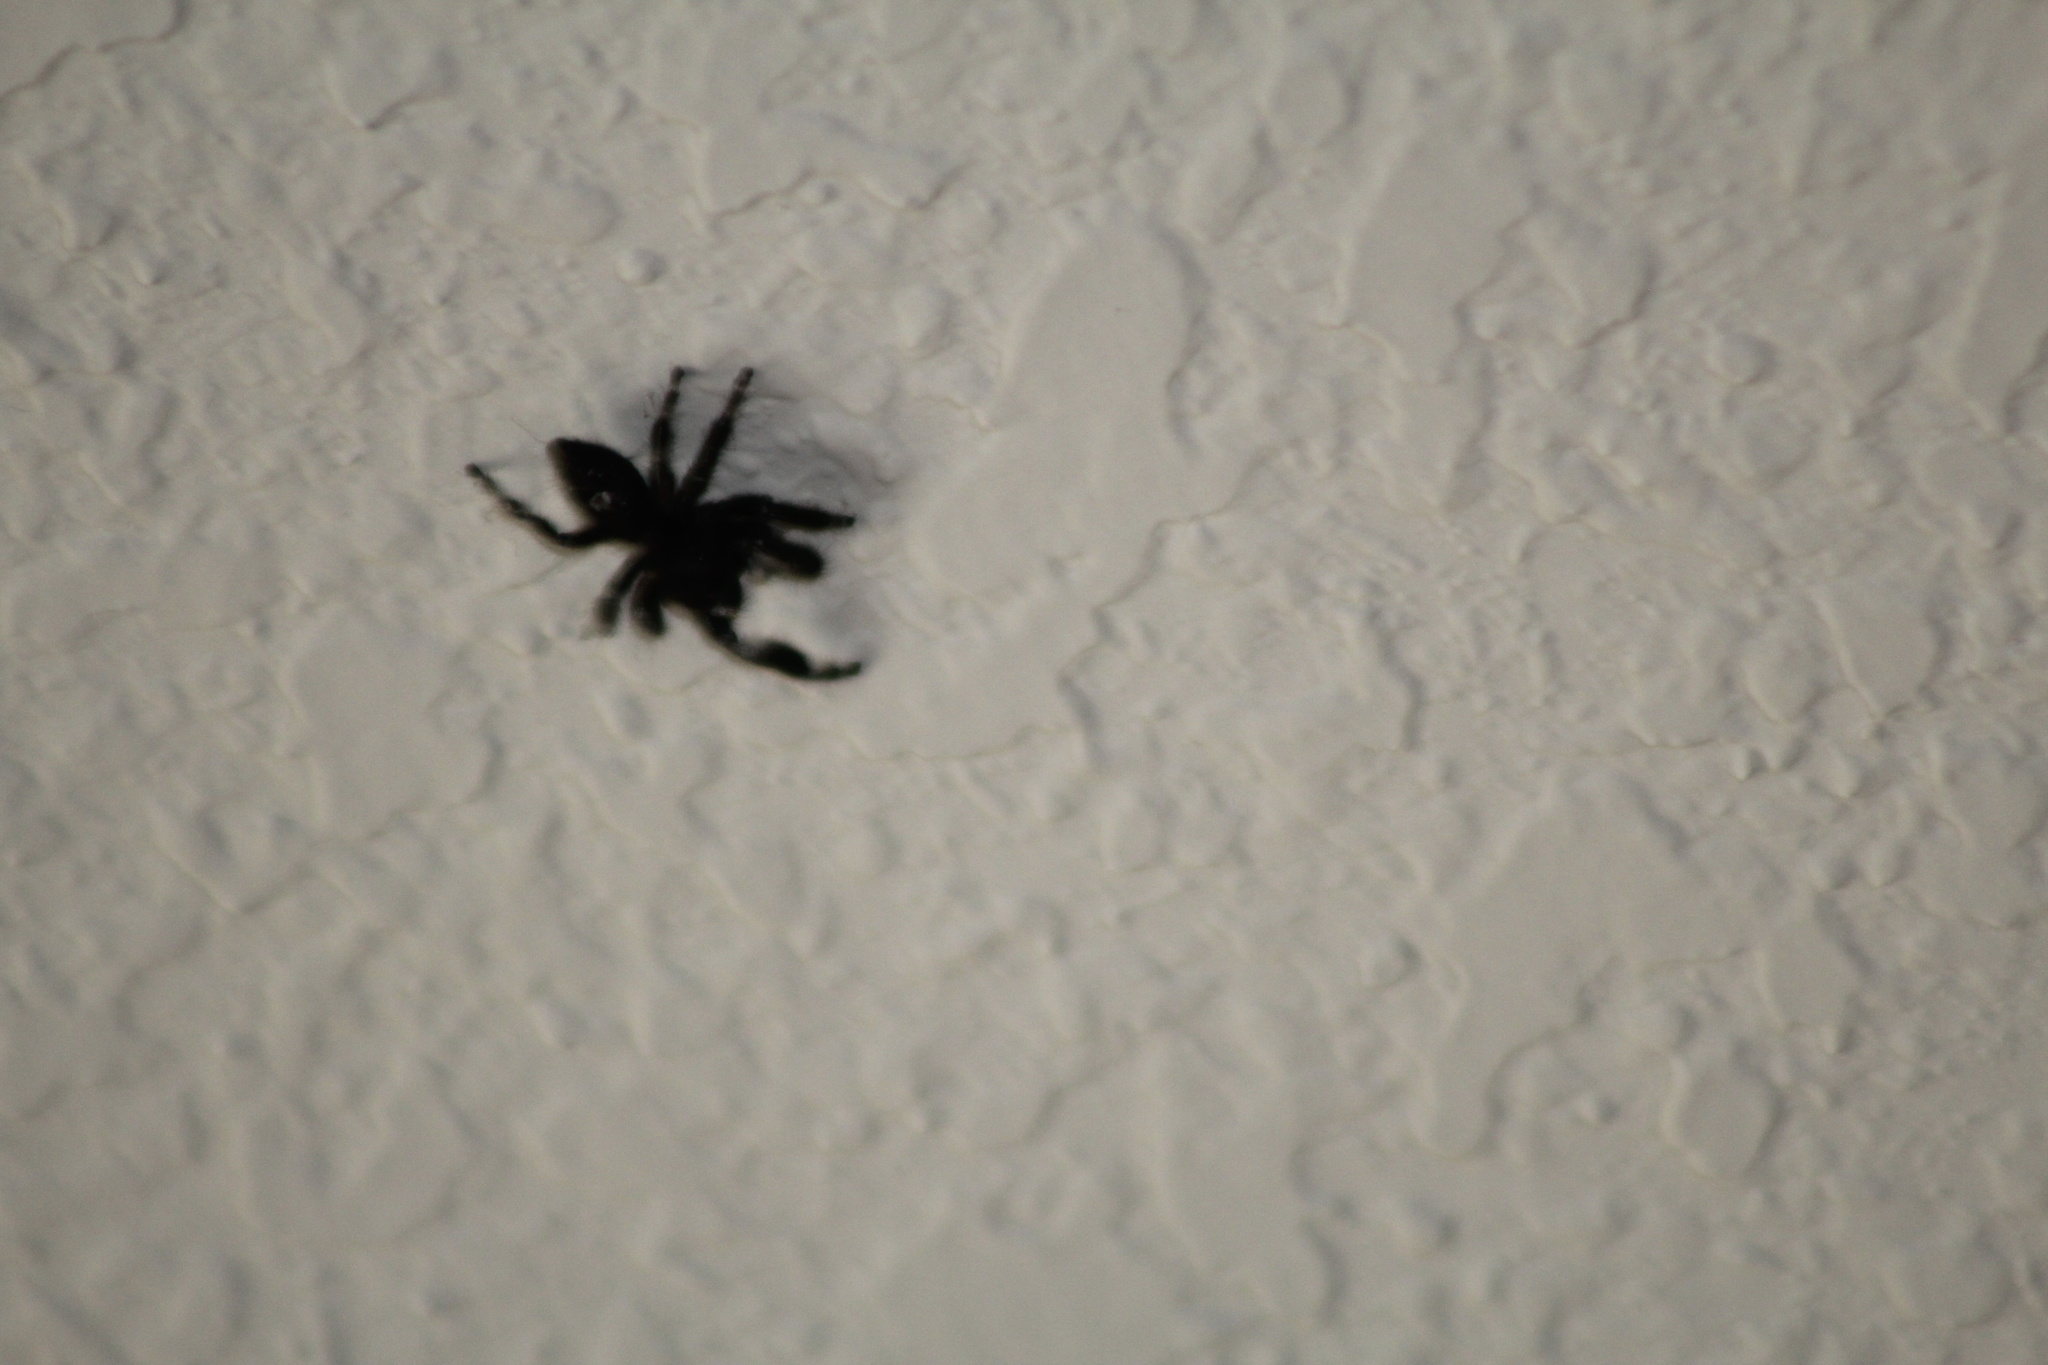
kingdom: Animalia
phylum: Arthropoda
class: Arachnida
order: Araneae
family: Salticidae
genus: Phidippus
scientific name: Phidippus audax
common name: Bold jumper
